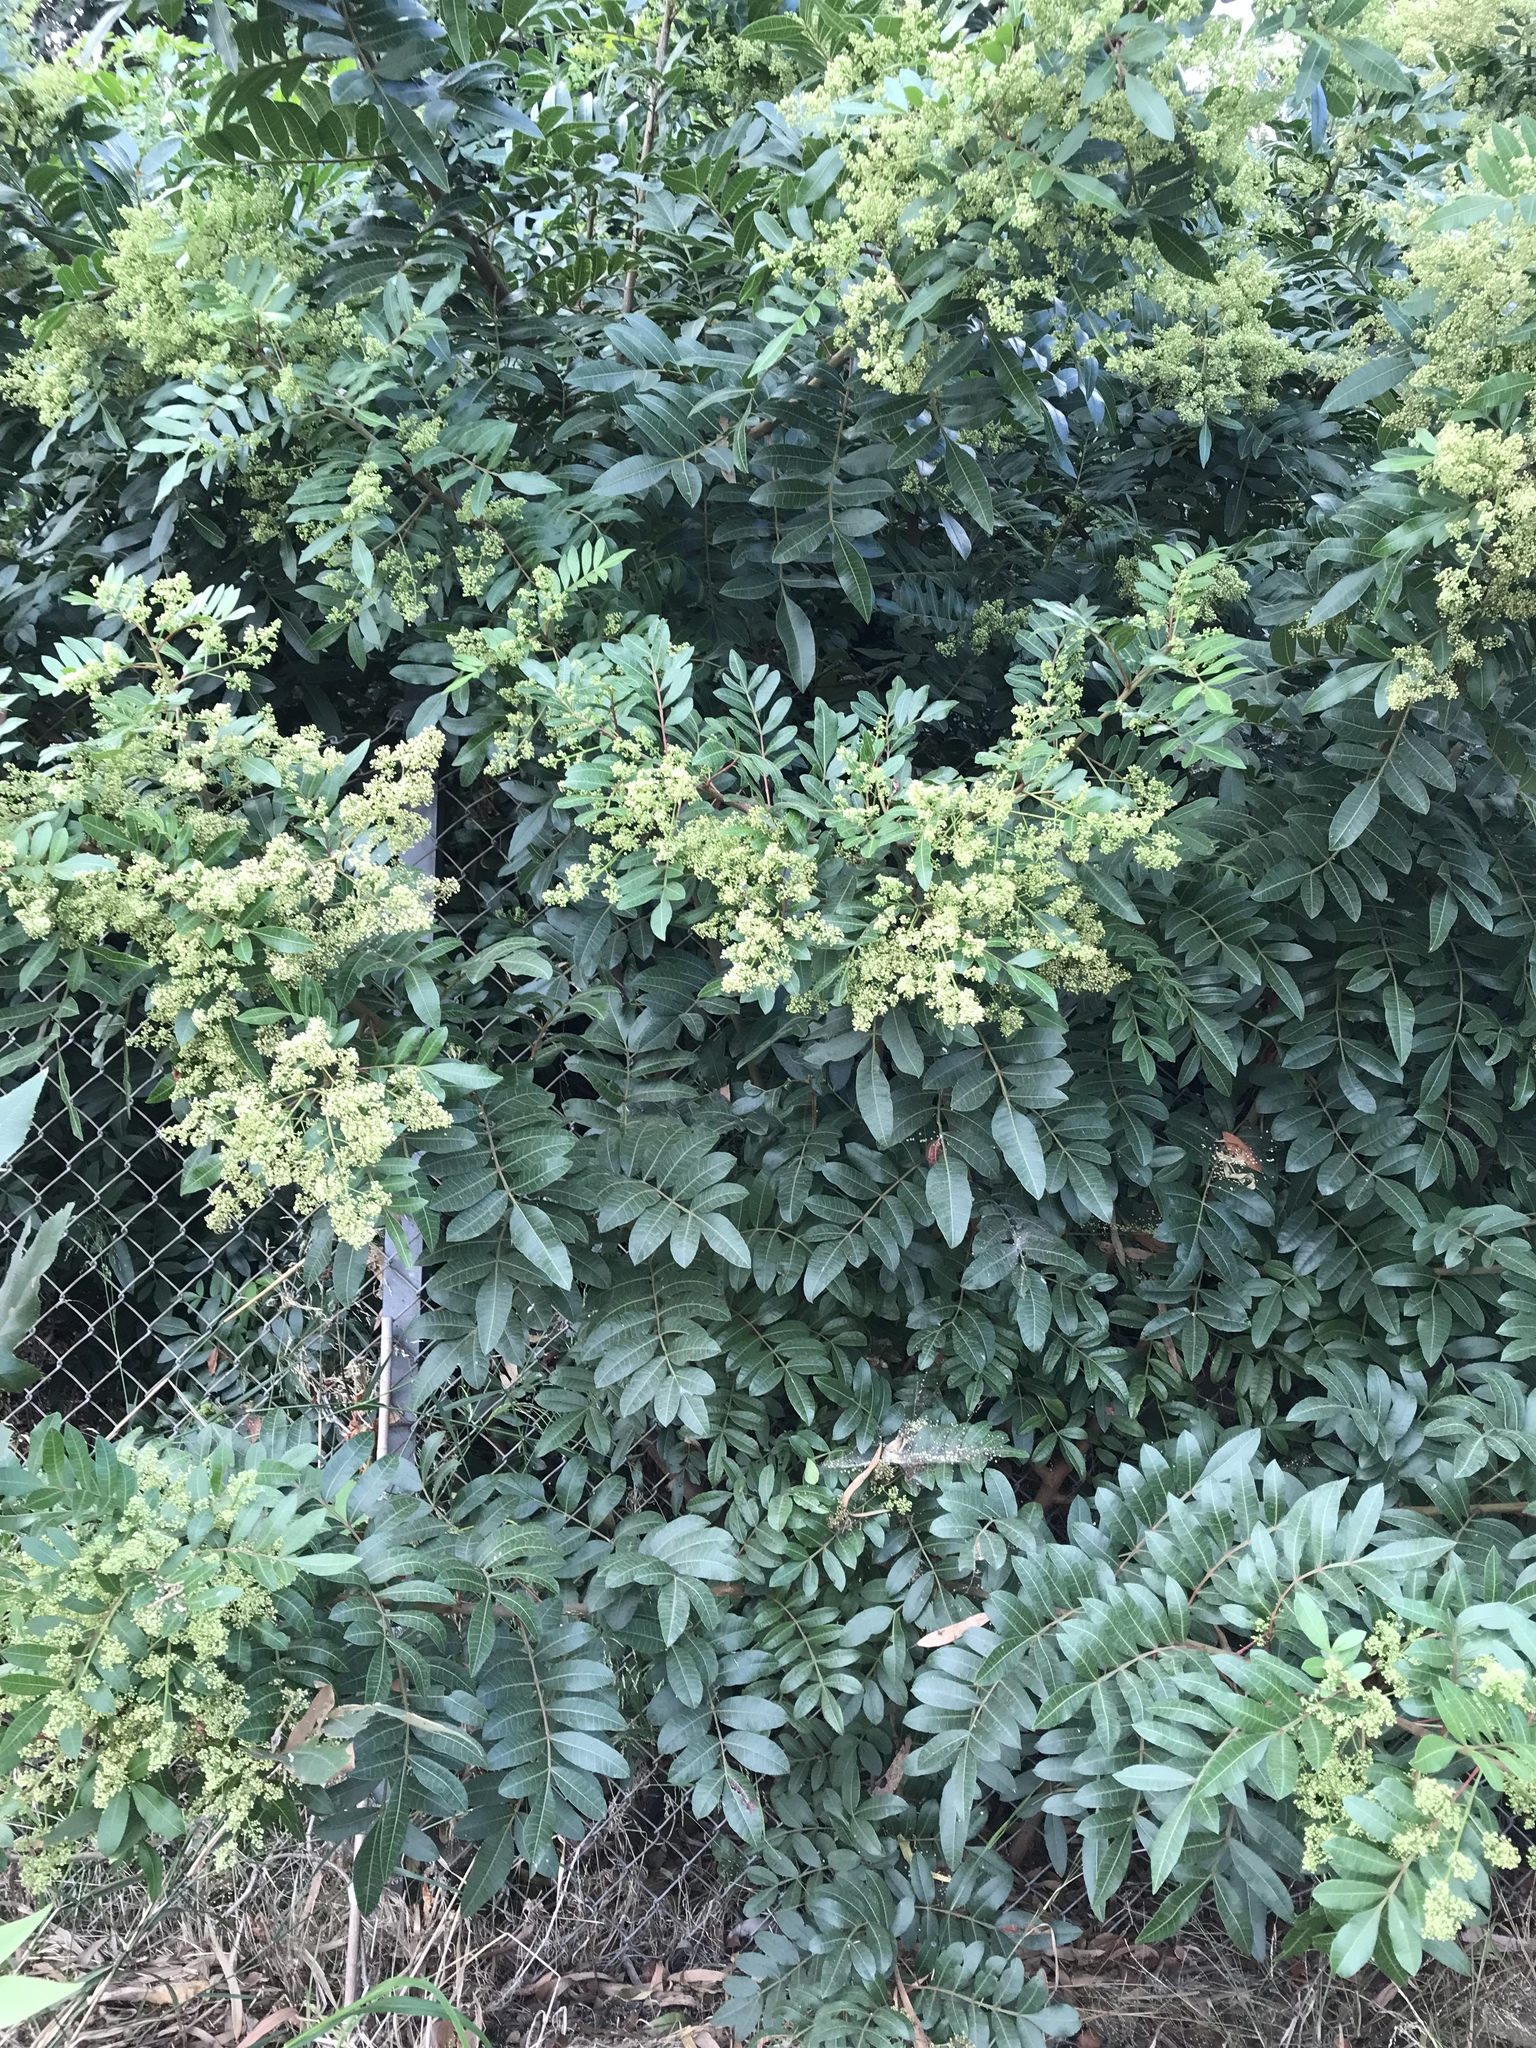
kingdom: Plantae
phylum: Tracheophyta
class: Magnoliopsida
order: Sapindales
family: Anacardiaceae
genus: Schinus
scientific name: Schinus terebinthifolia
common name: Brazilian peppertree
